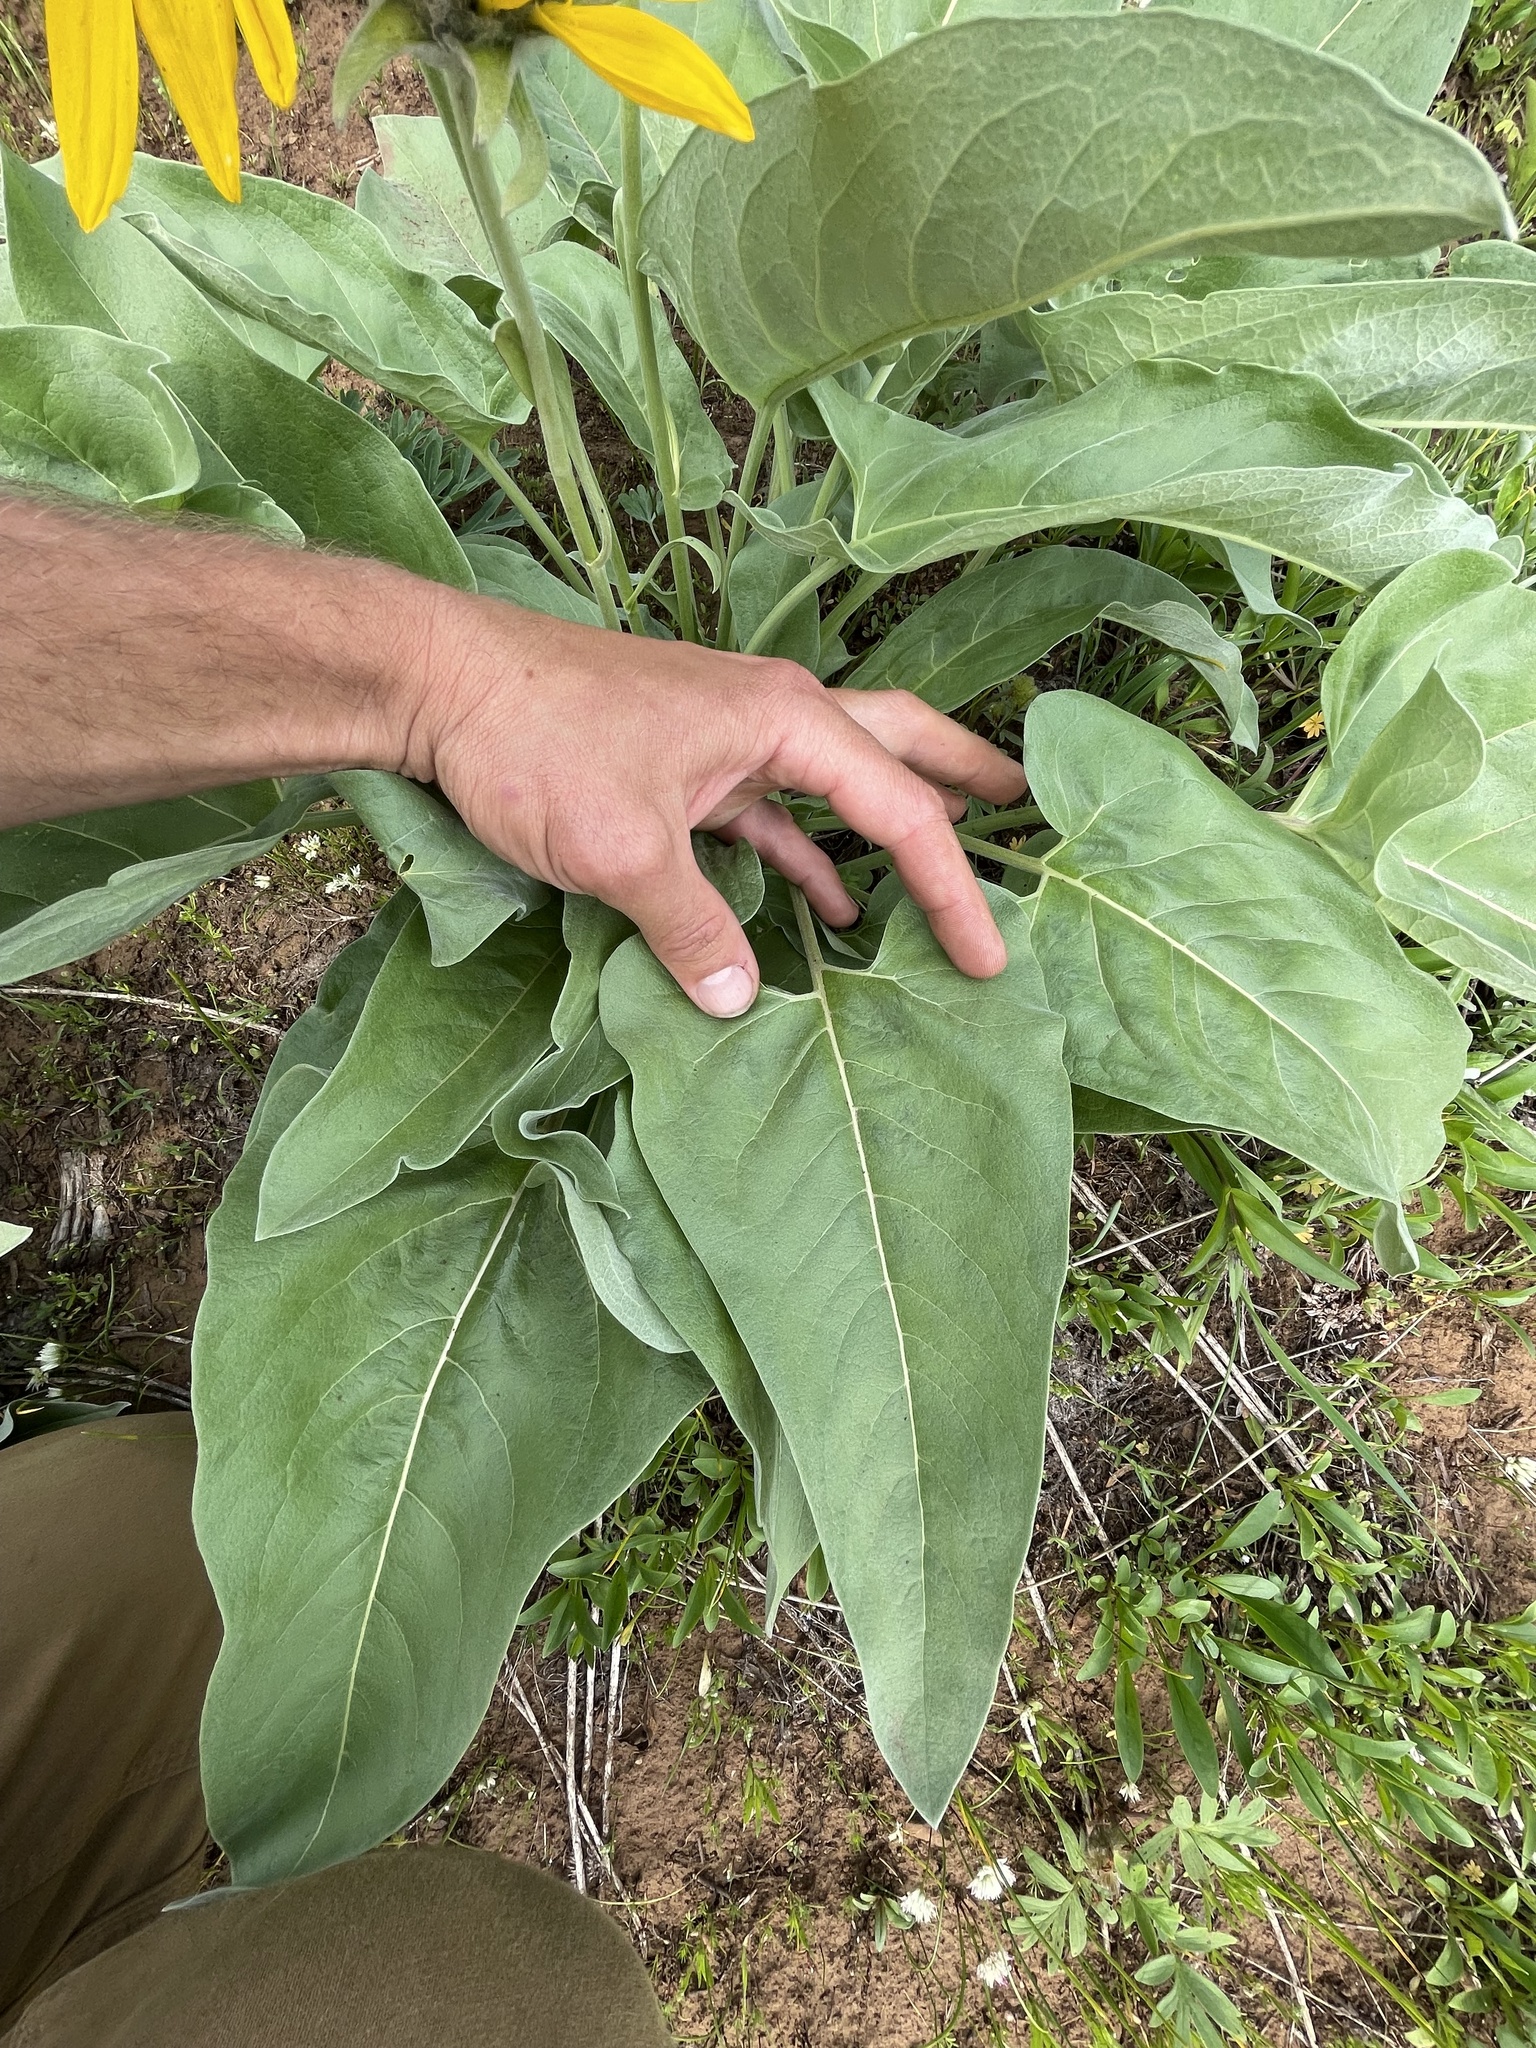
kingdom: Plantae
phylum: Tracheophyta
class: Magnoliopsida
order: Asterales
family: Asteraceae
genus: Wyethia
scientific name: Wyethia sagittata
